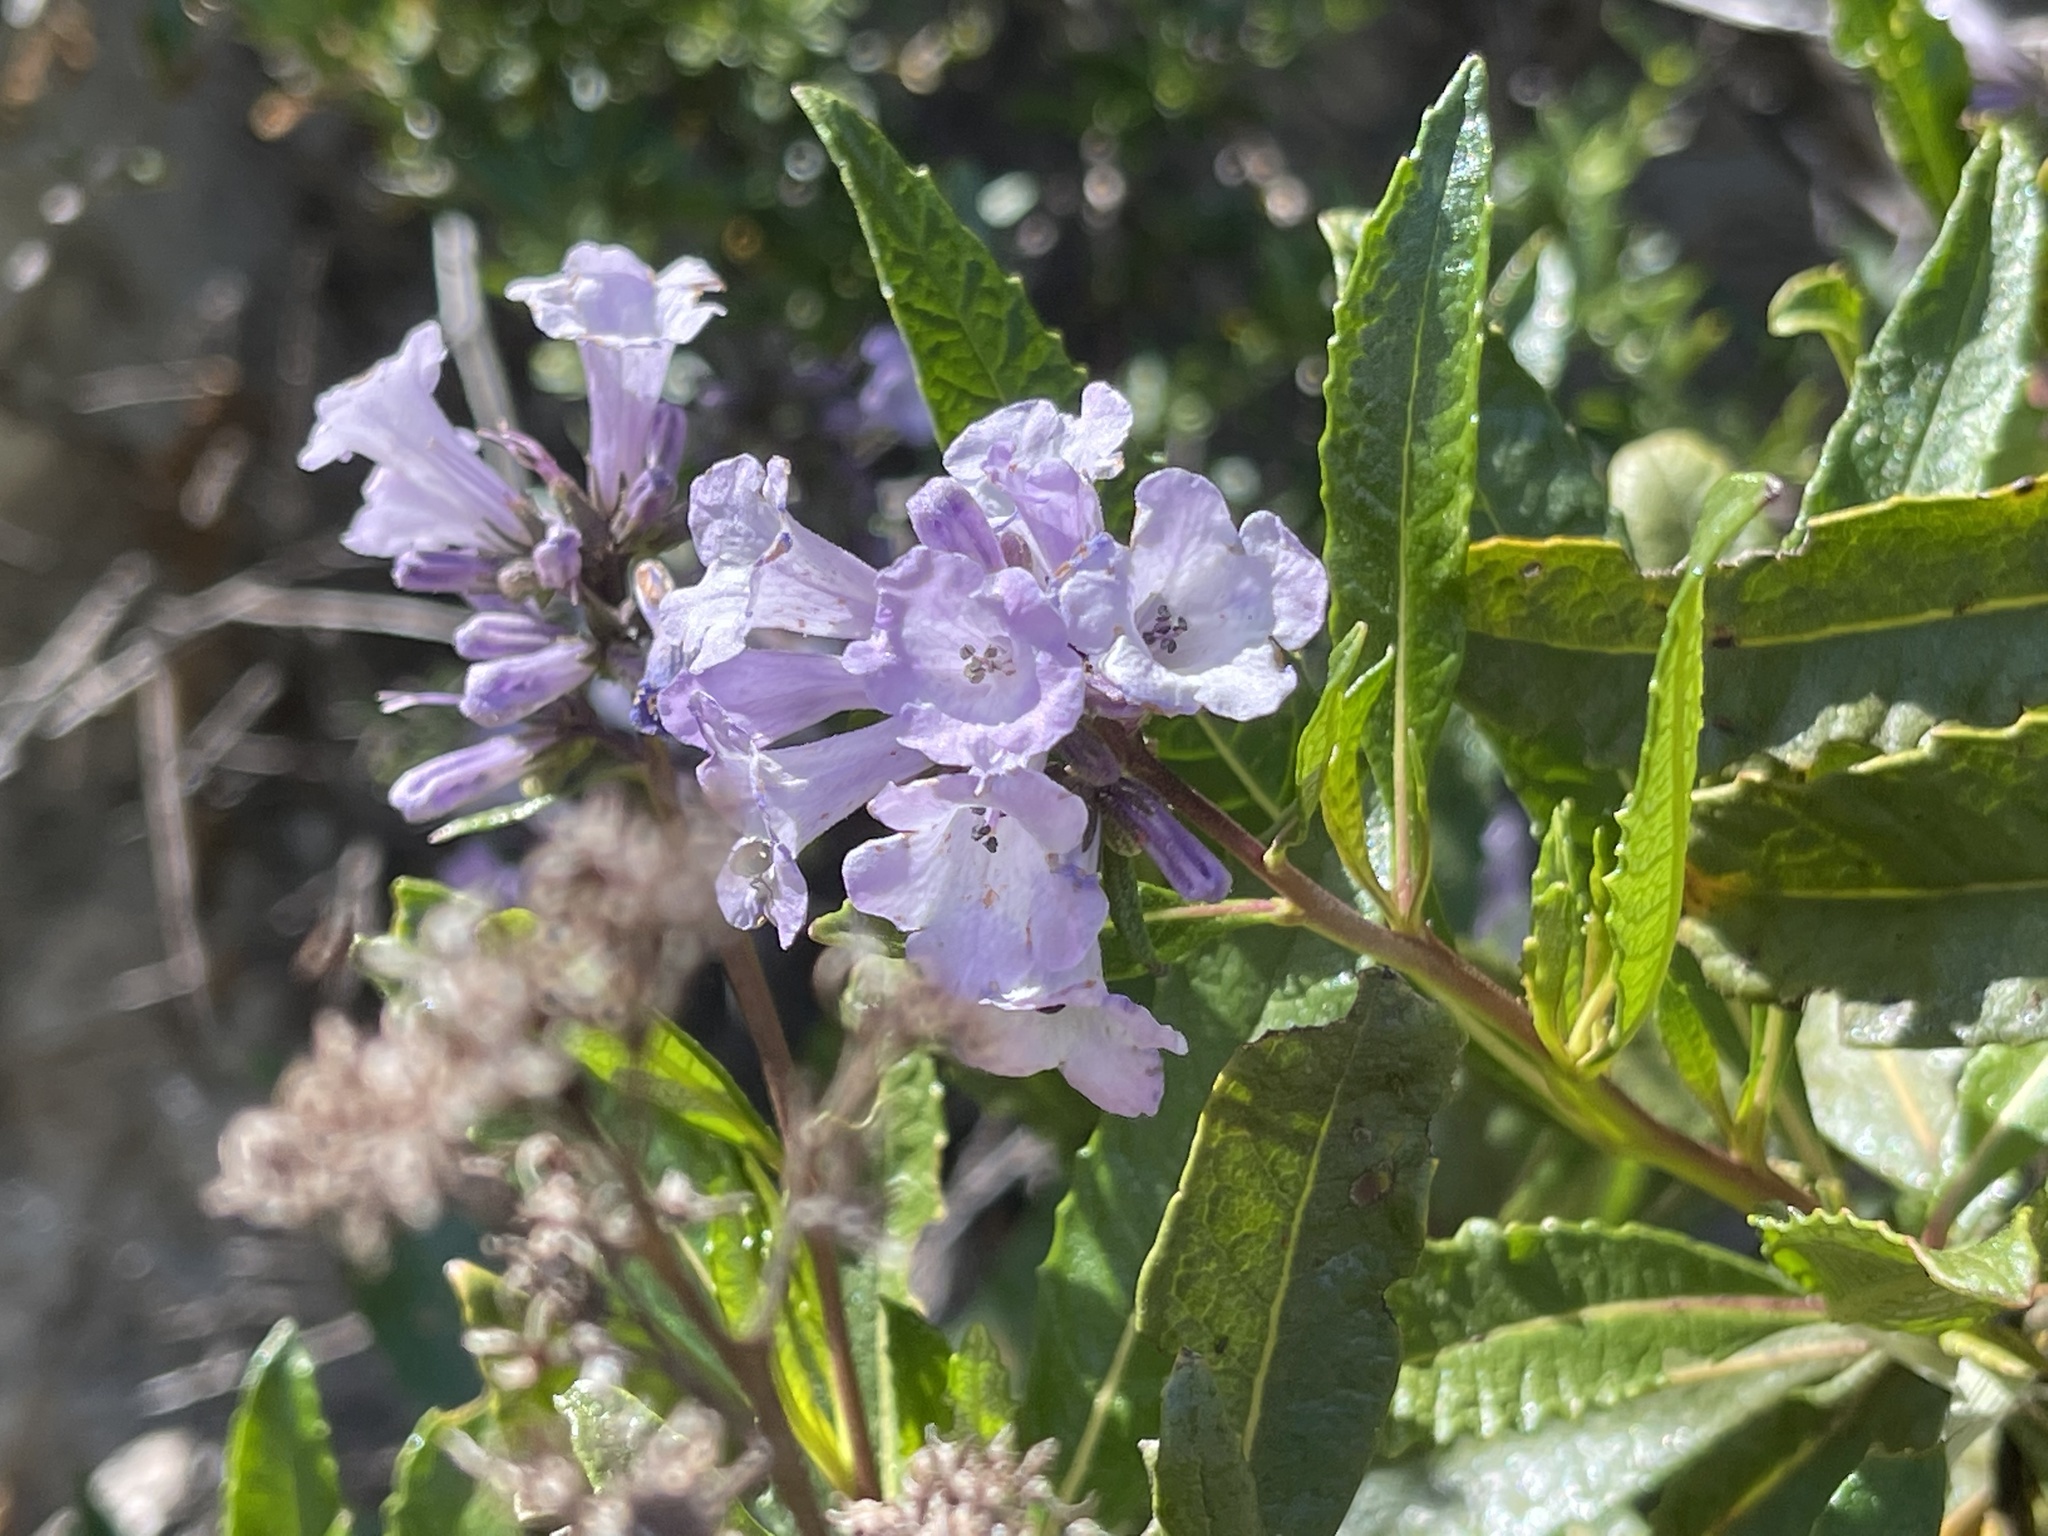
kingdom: Plantae
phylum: Tracheophyta
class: Magnoliopsida
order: Boraginales
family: Namaceae
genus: Eriodictyon
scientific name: Eriodictyon californicum
